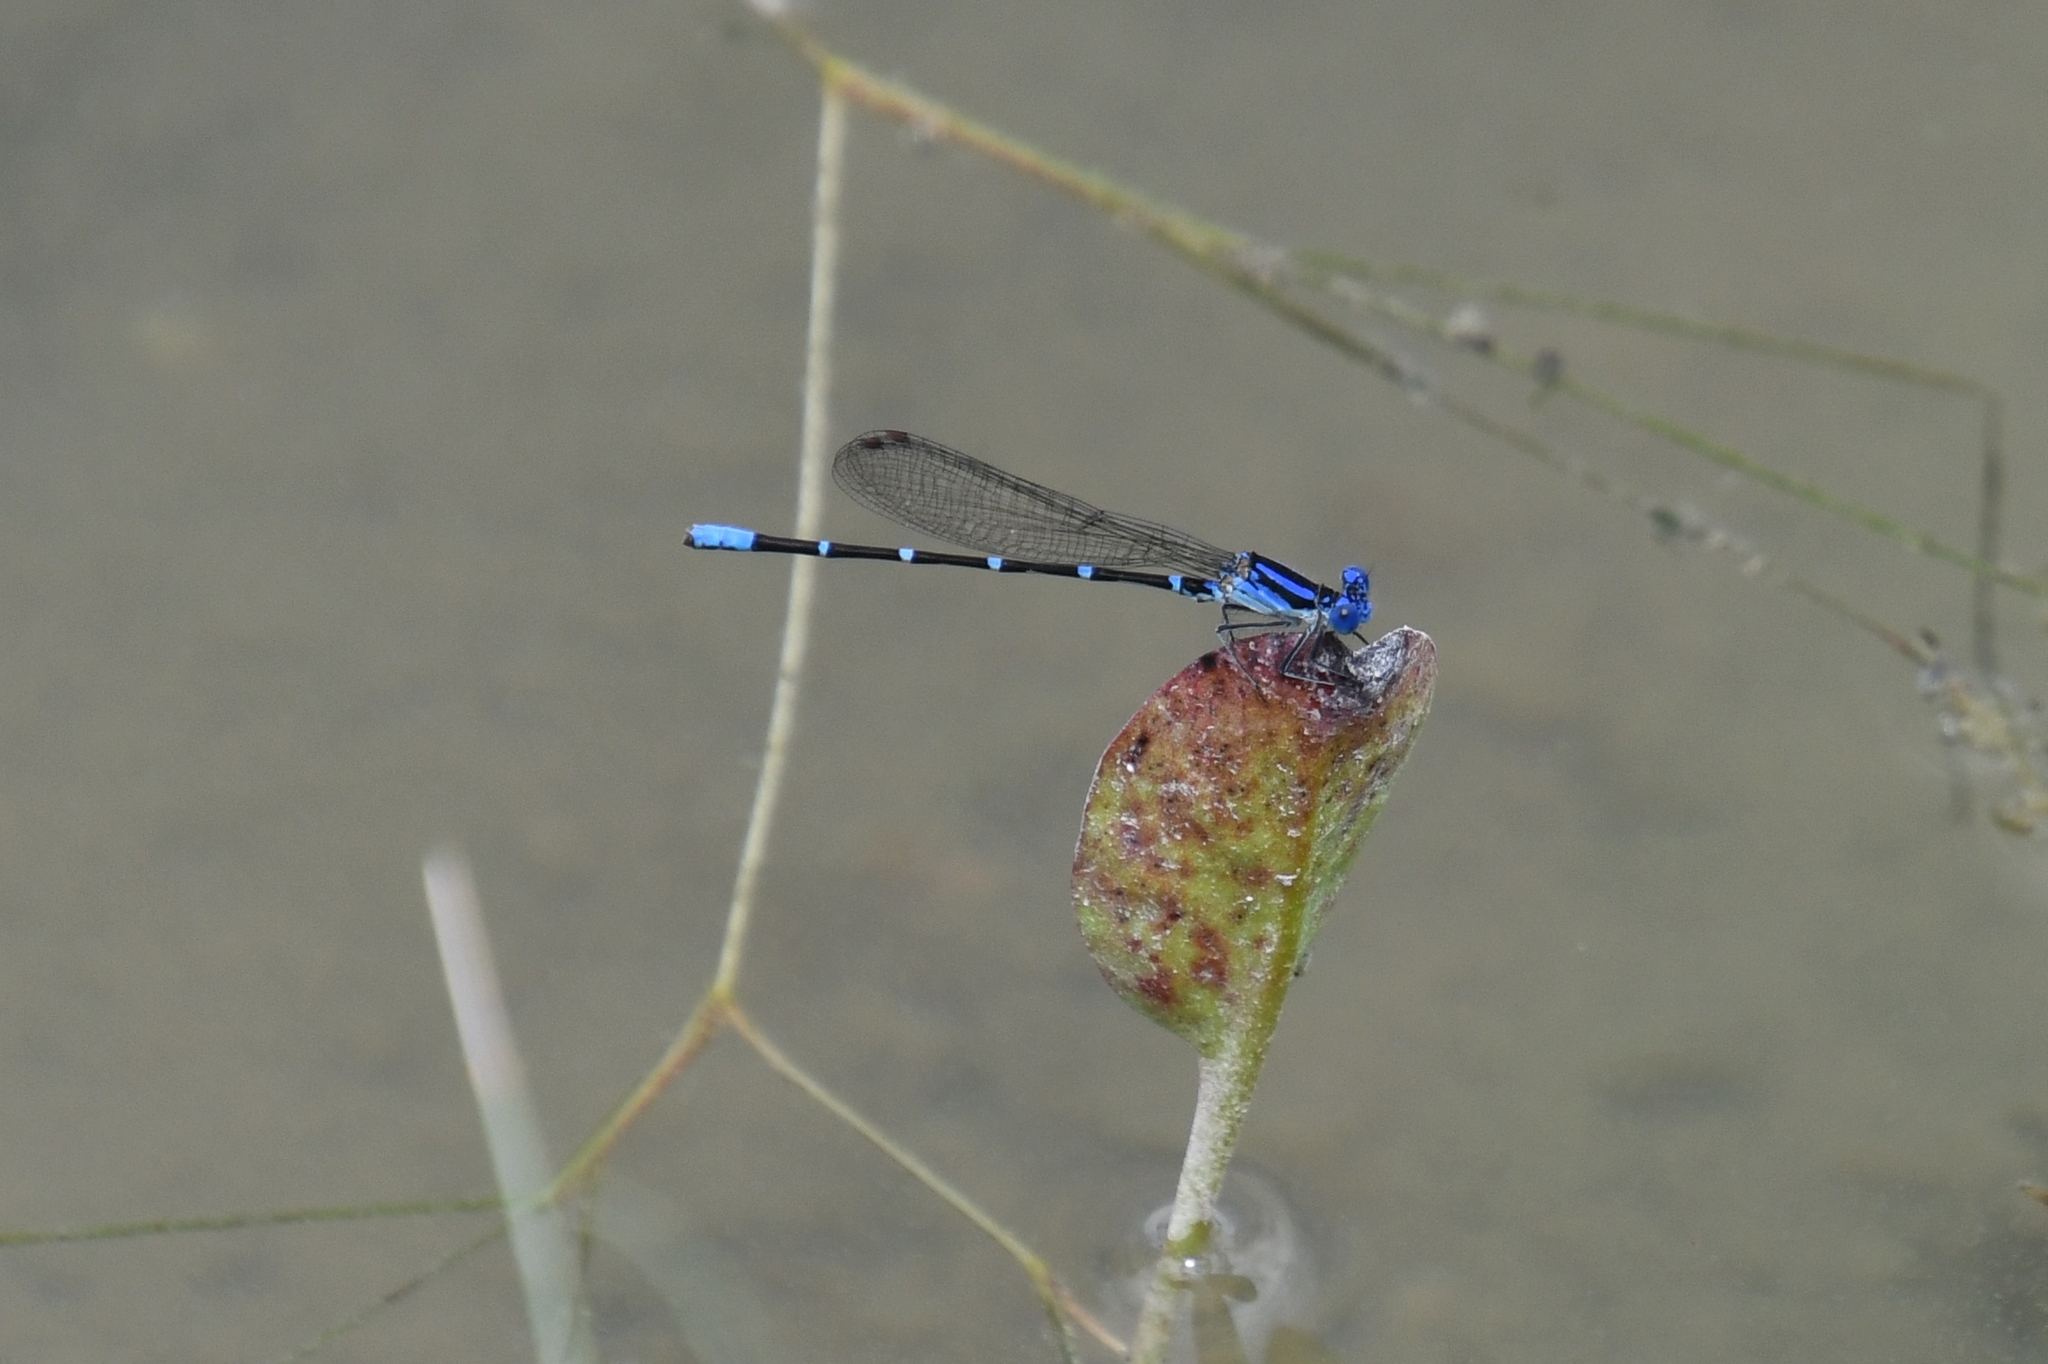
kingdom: Animalia
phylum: Arthropoda
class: Insecta
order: Odonata
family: Coenagrionidae
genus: Argia
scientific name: Argia sedula
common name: Blue-ringed dancer
